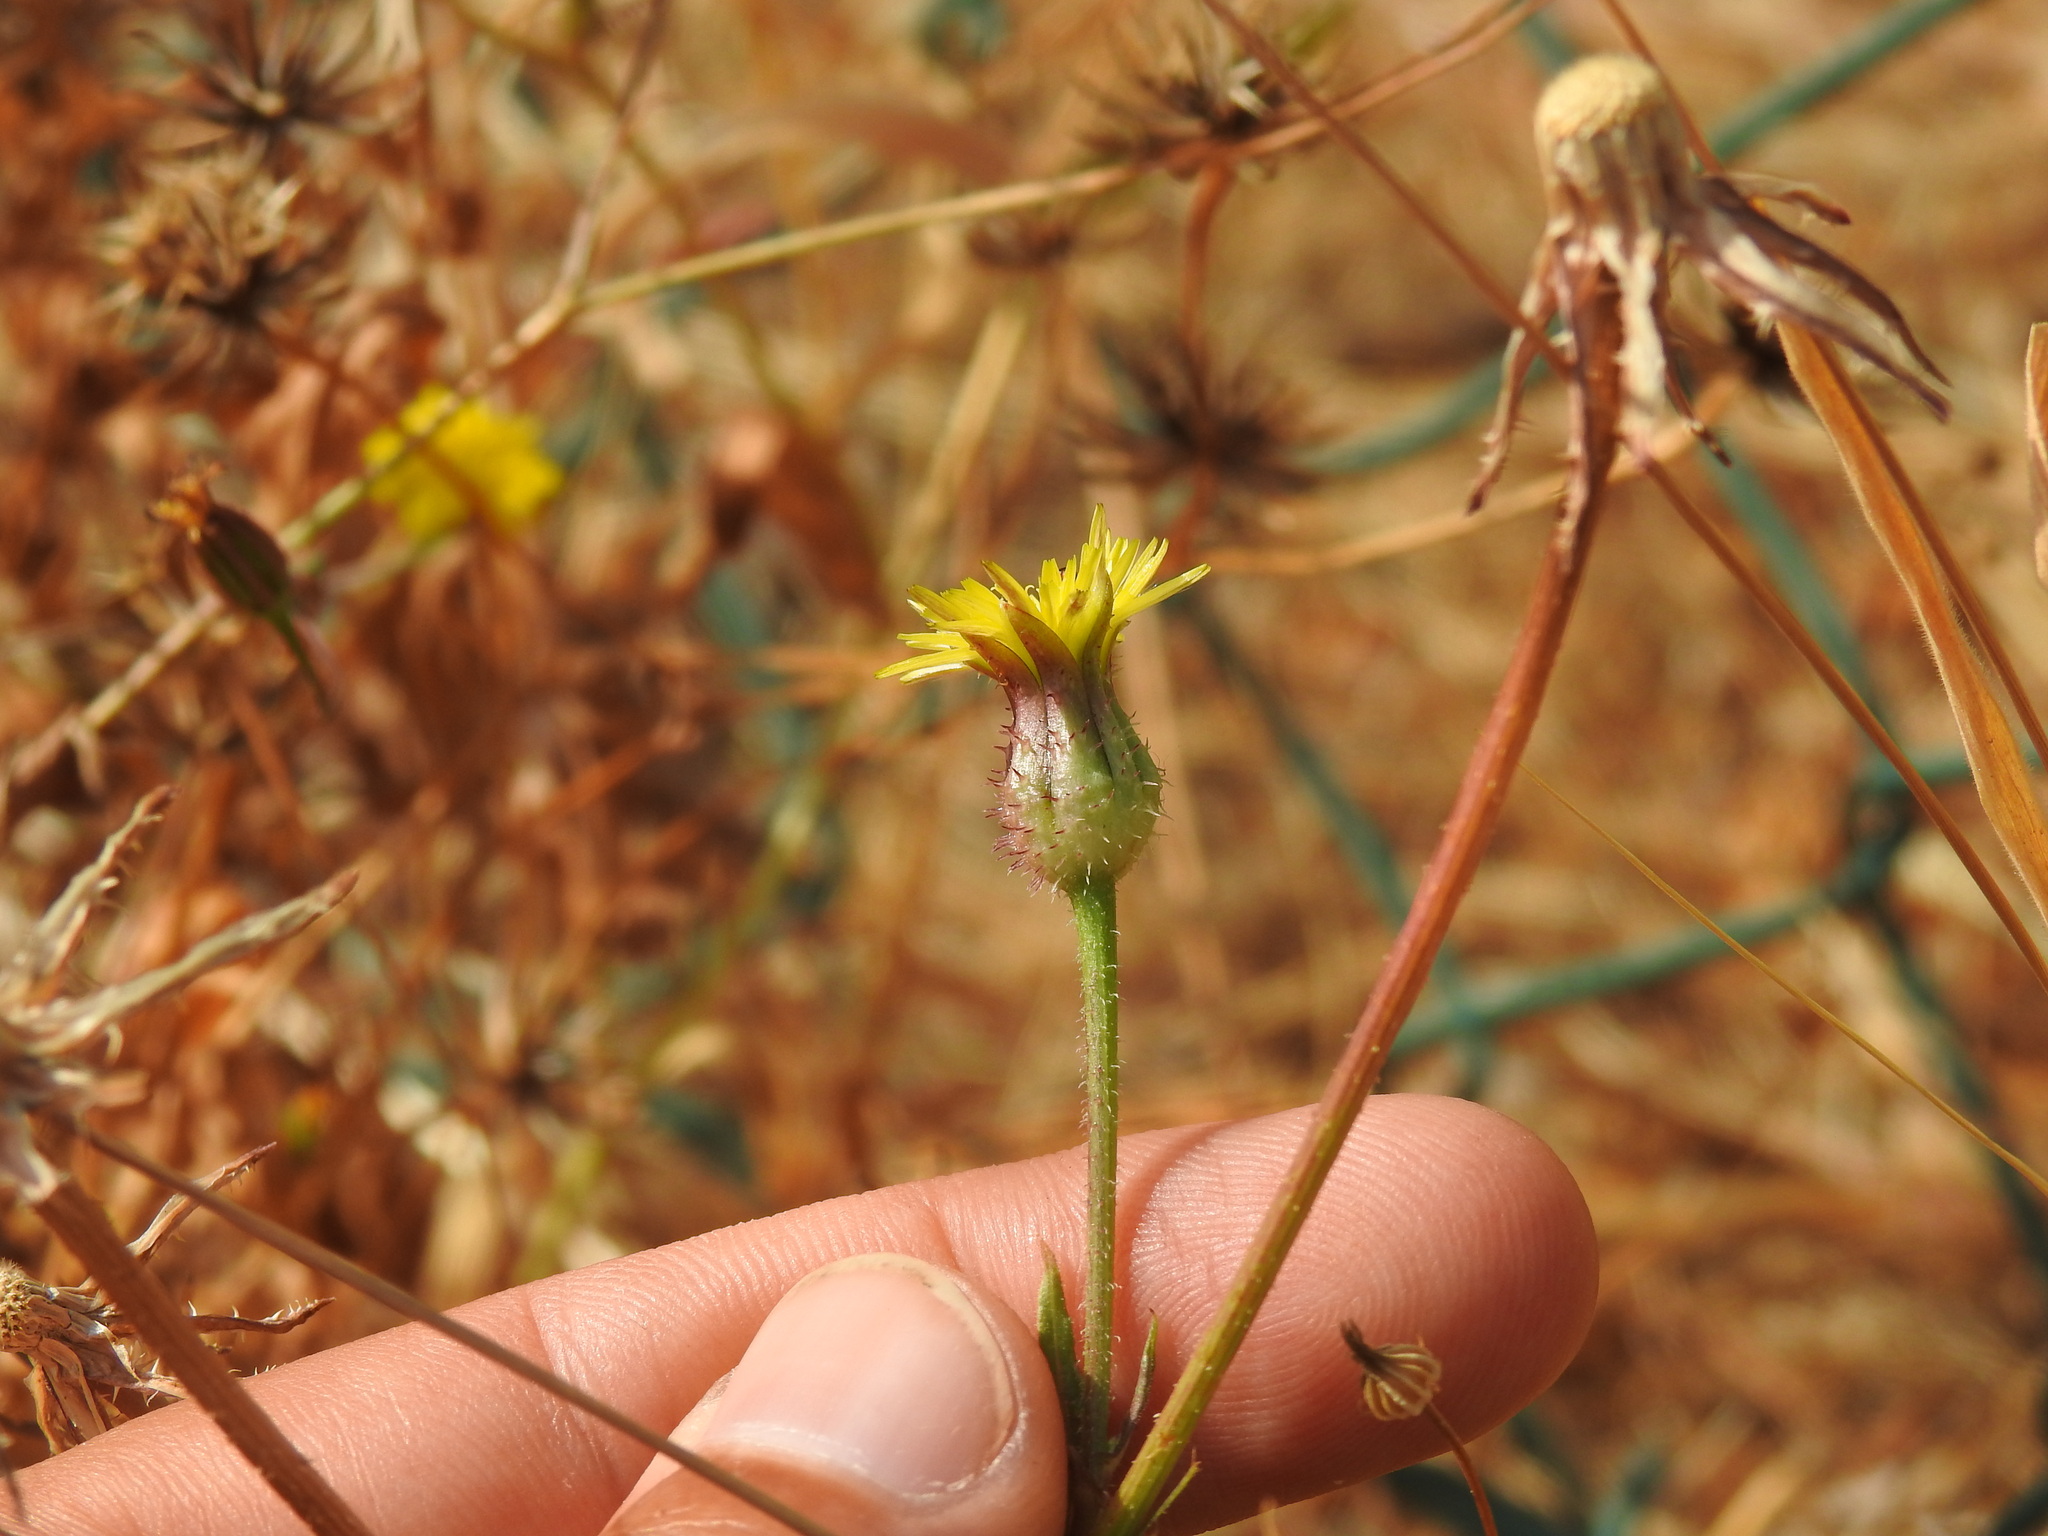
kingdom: Plantae
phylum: Tracheophyta
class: Magnoliopsida
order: Asterales
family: Asteraceae
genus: Urospermum
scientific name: Urospermum picroides
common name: False hawkbit
